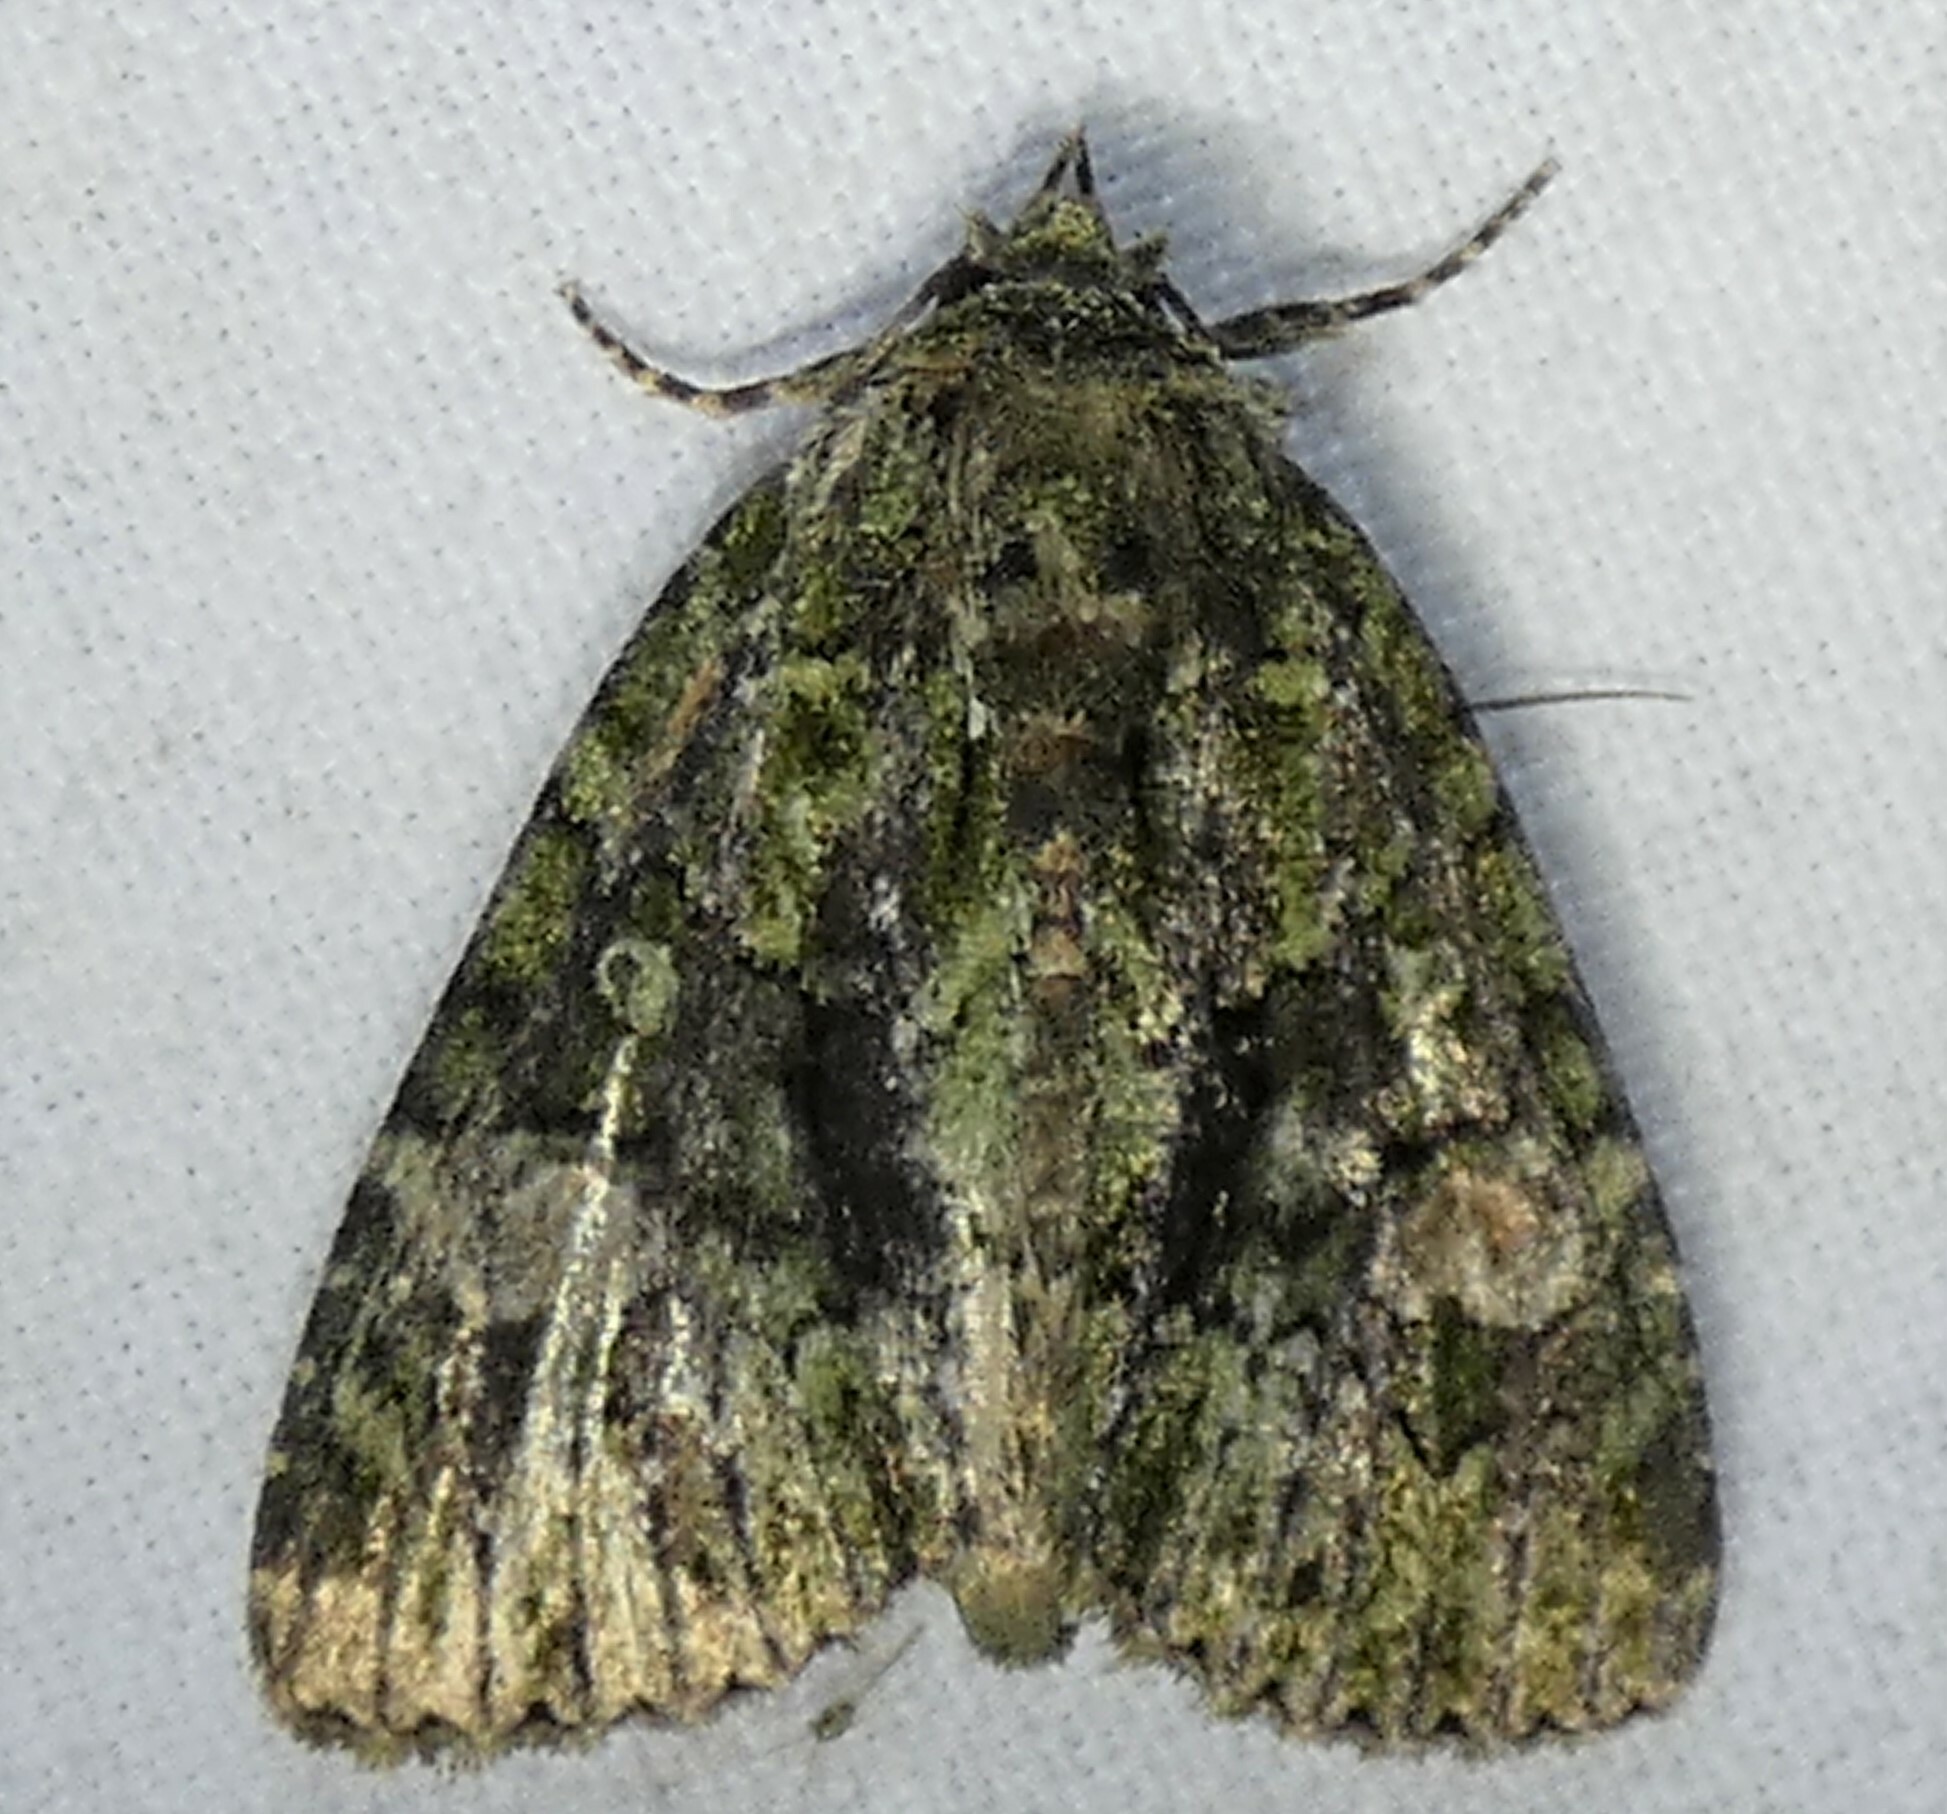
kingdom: Animalia
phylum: Arthropoda
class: Insecta
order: Lepidoptera
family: Noctuidae
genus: Phosphila
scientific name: Phosphila miselioides
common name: Spotted phosphila moth
